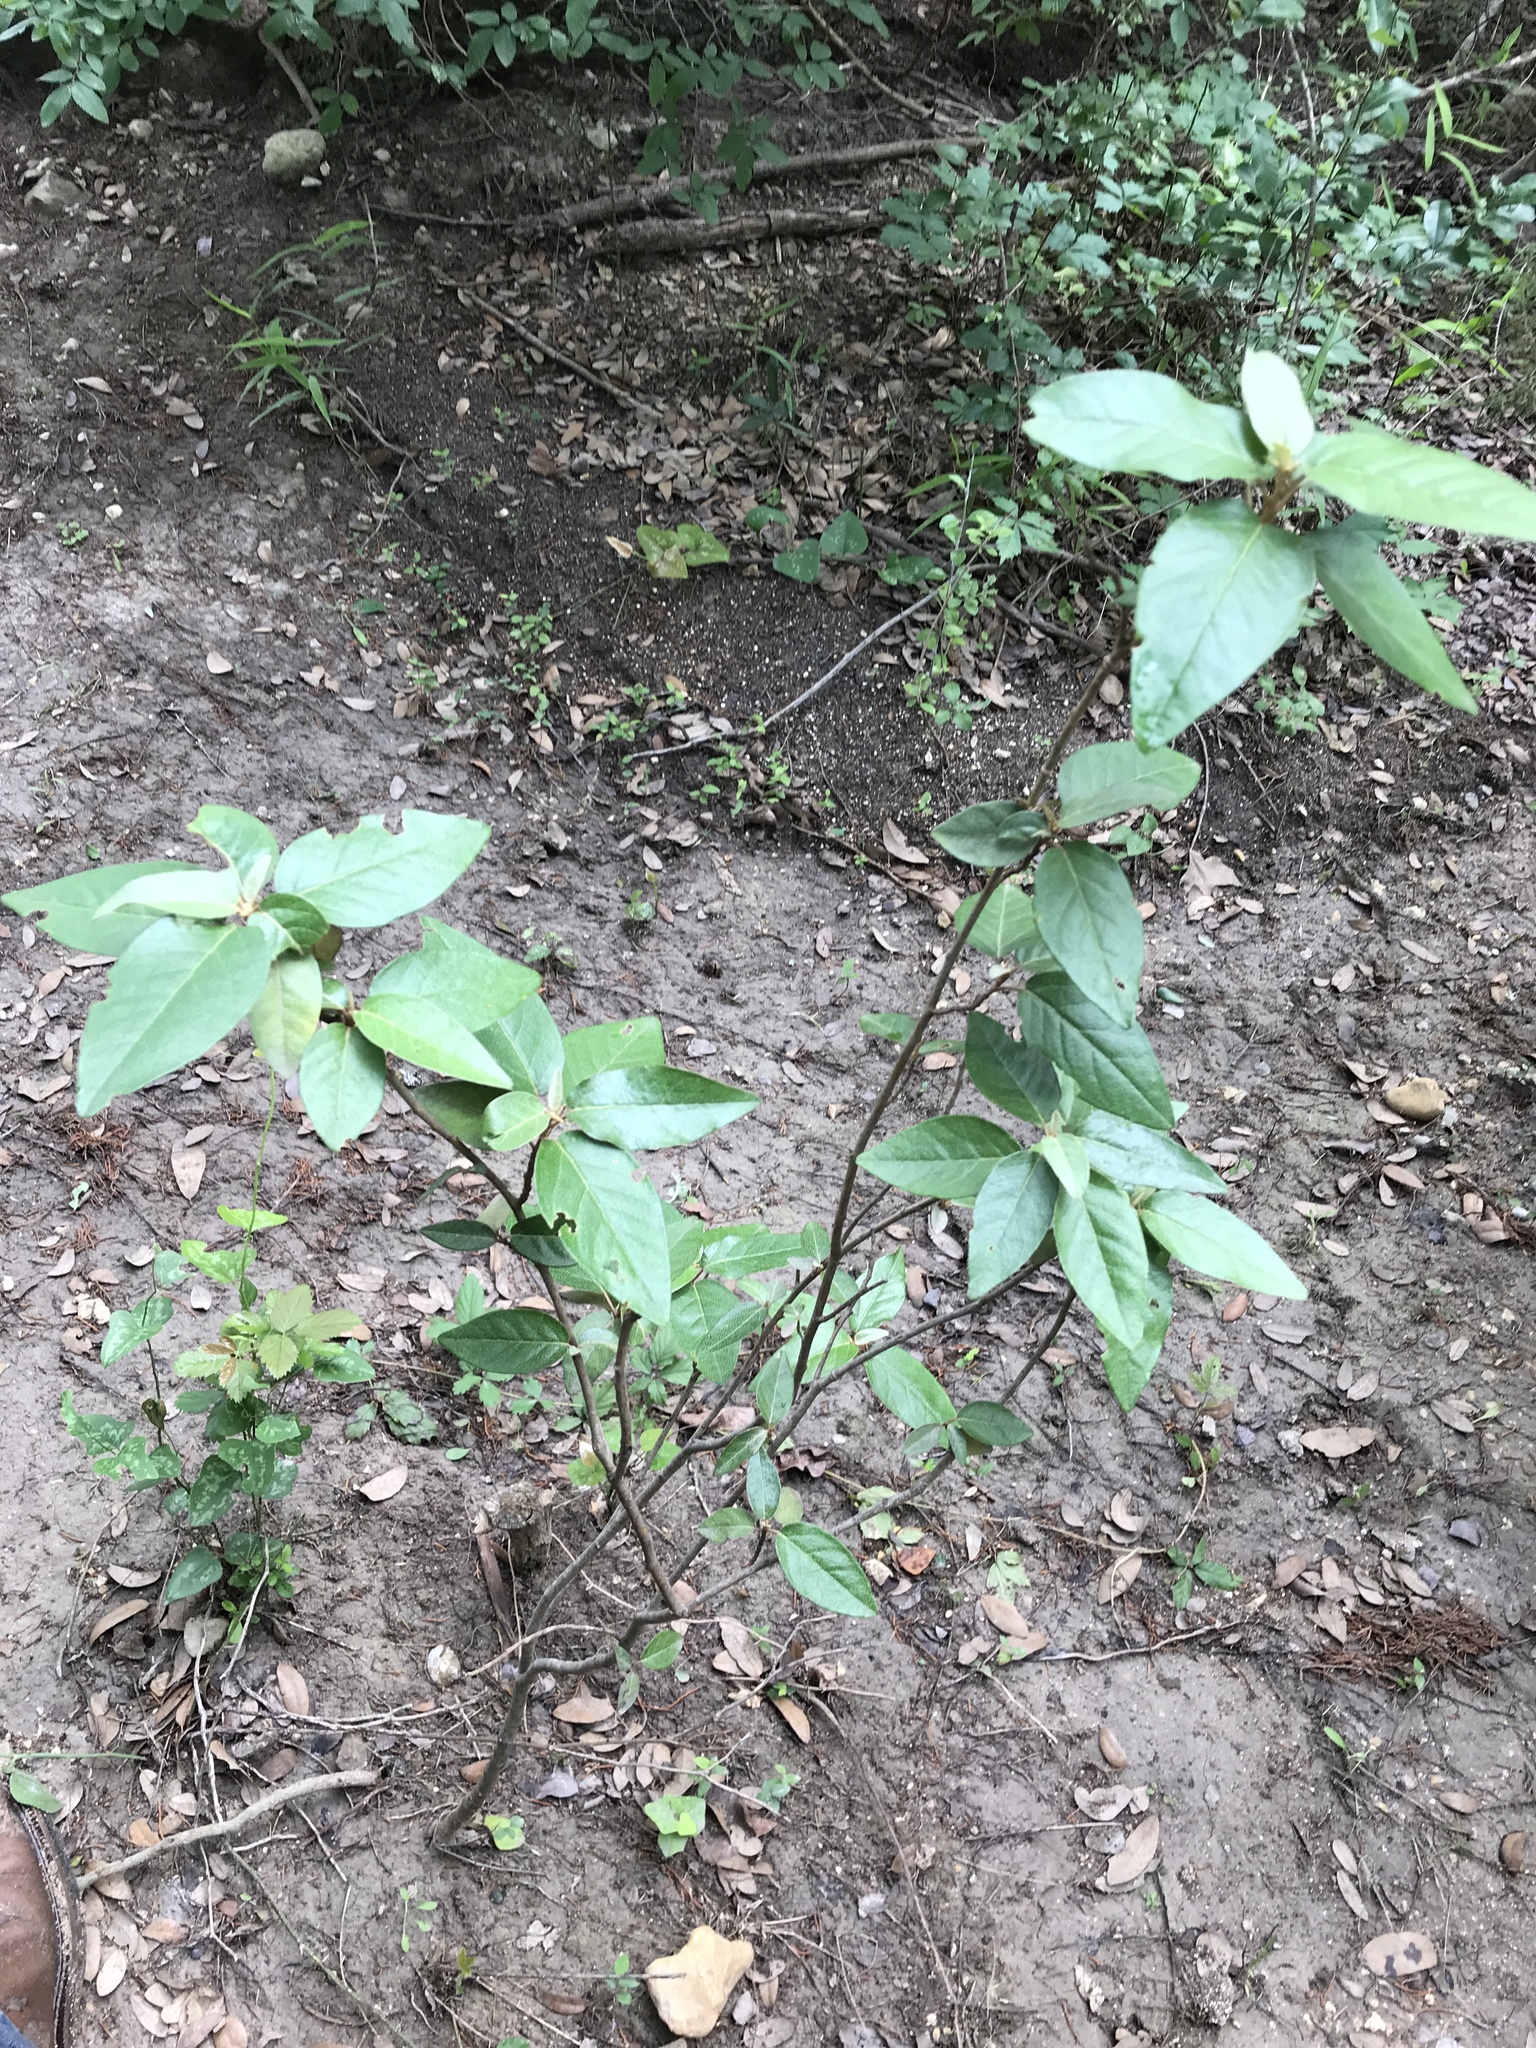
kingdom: Plantae
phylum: Tracheophyta
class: Magnoliopsida
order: Malpighiales
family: Euphorbiaceae
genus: Croton
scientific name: Croton alabamensis
